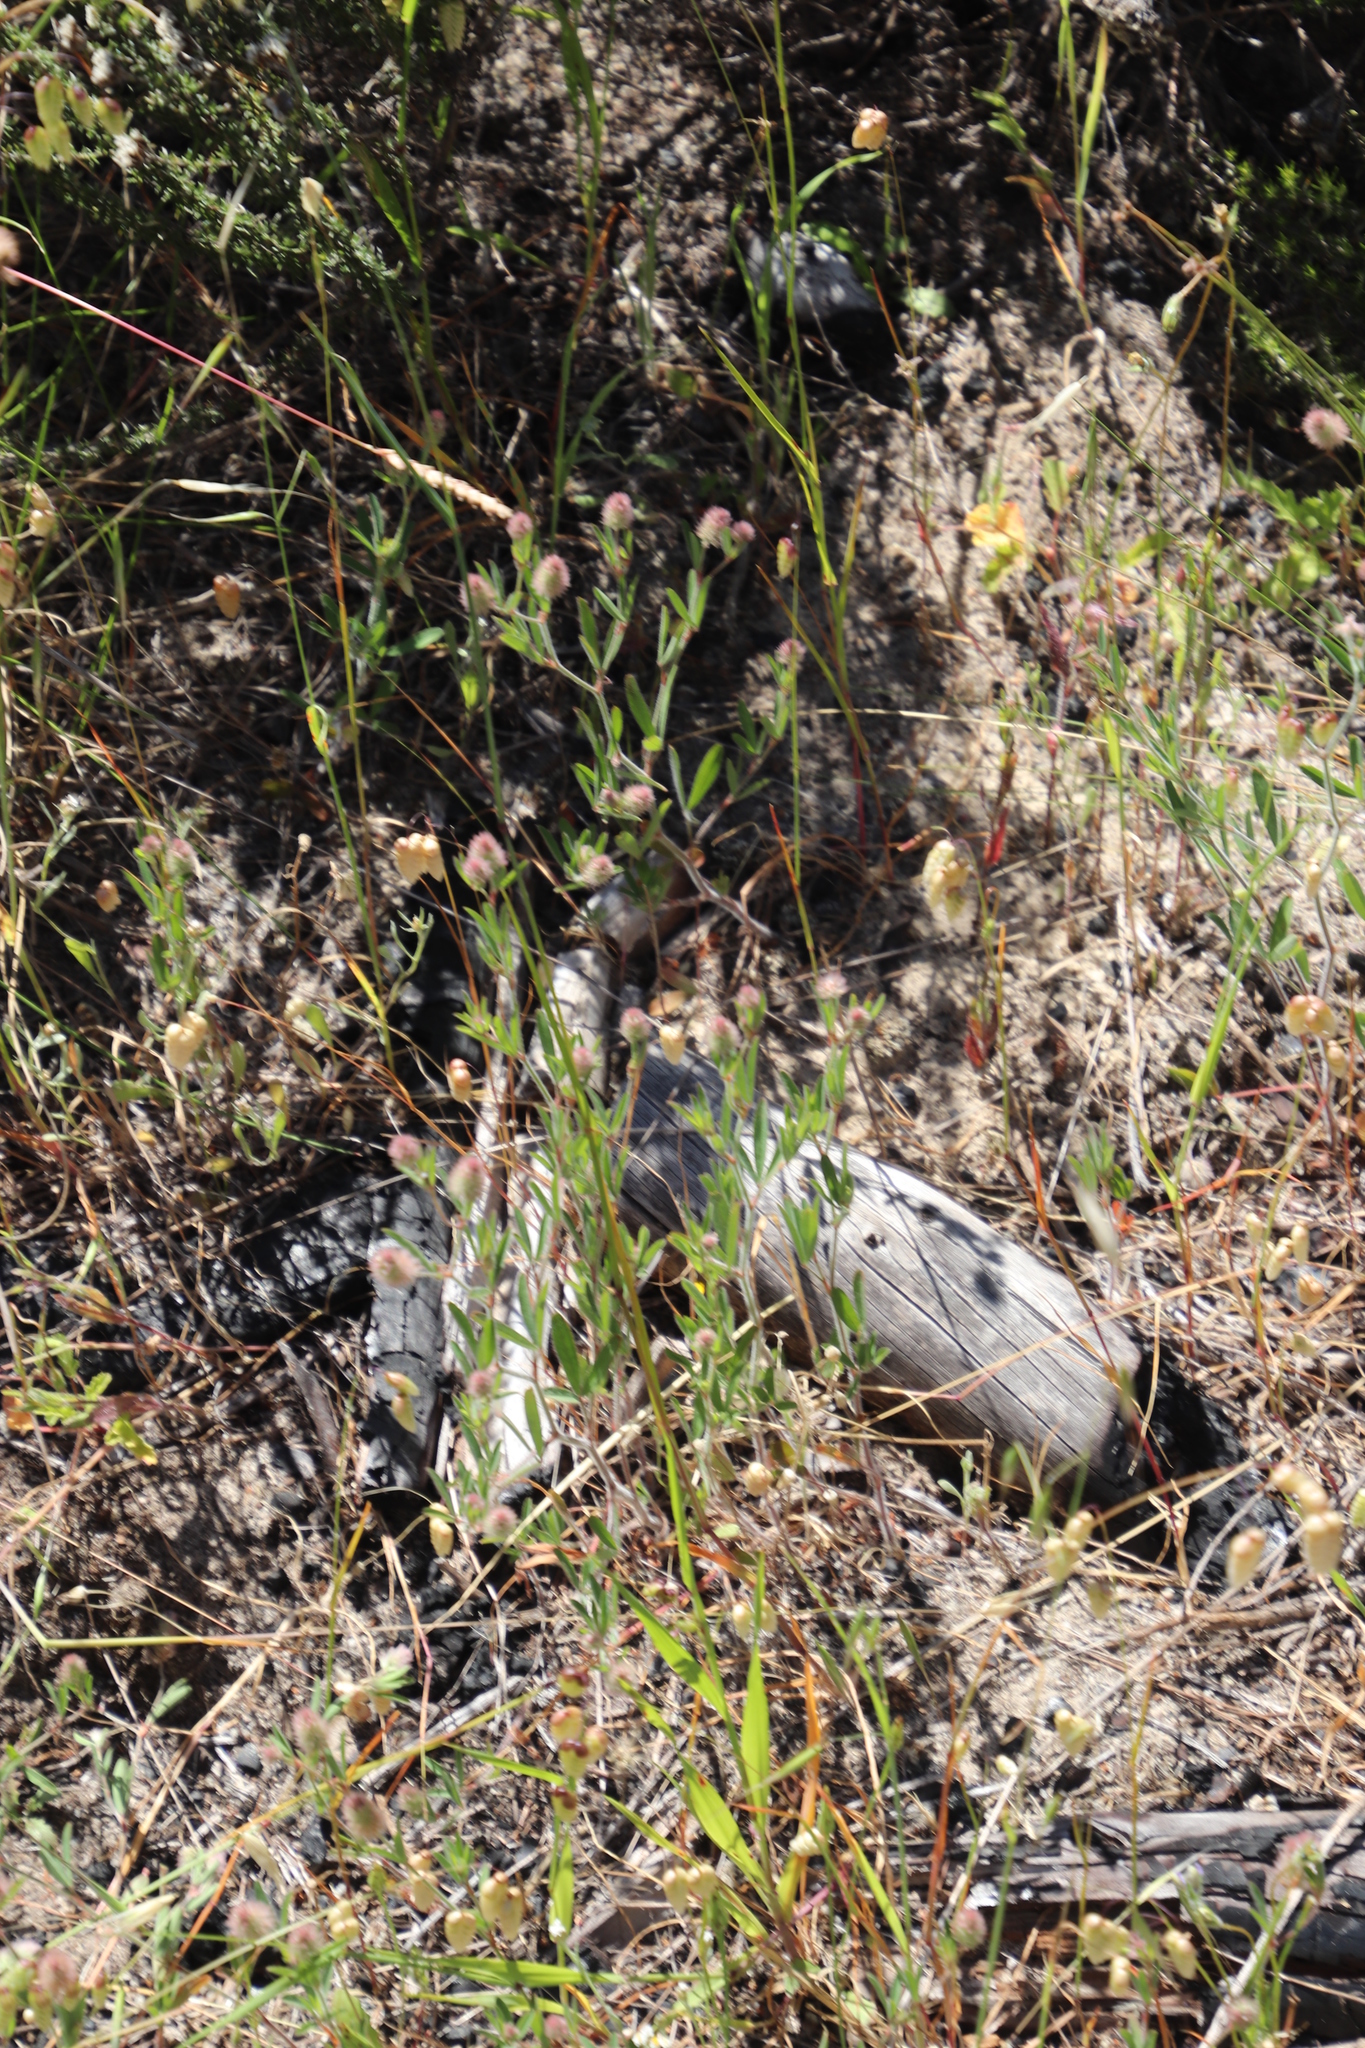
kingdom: Plantae
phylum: Tracheophyta
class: Magnoliopsida
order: Fabales
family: Fabaceae
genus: Trifolium
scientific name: Trifolium arvense
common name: Hare's-foot clover
